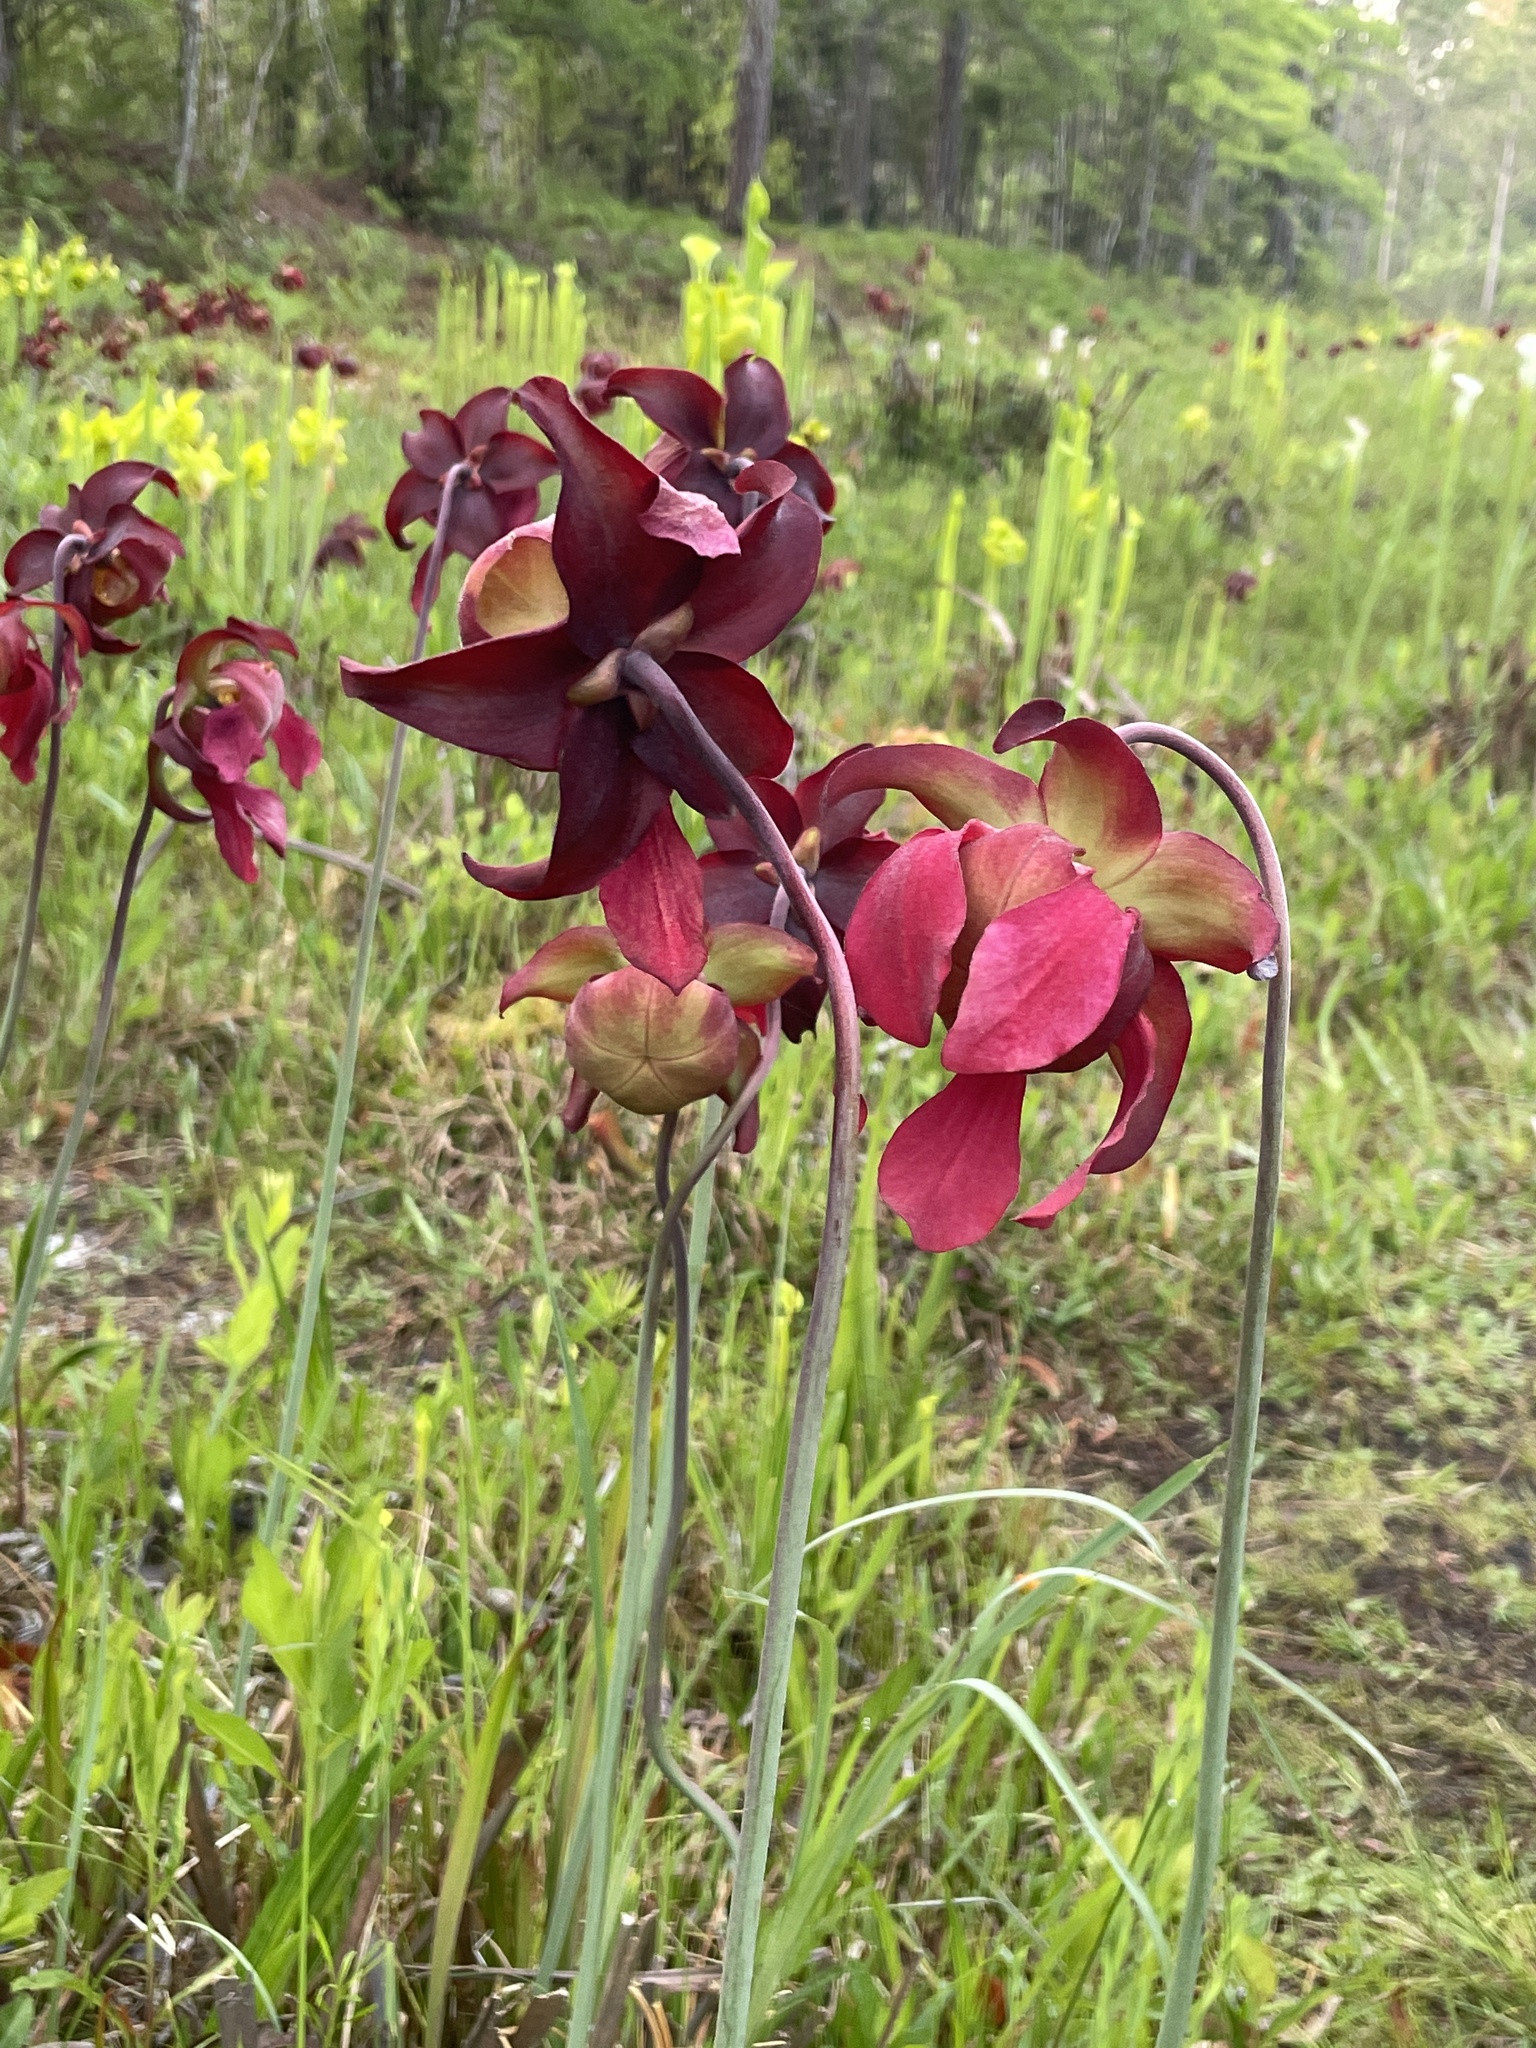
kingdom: Plantae
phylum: Tracheophyta
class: Magnoliopsida
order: Ericales
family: Sarraceniaceae
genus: Sarracenia
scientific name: Sarracenia leucophylla
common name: Purple trumpetleaf
